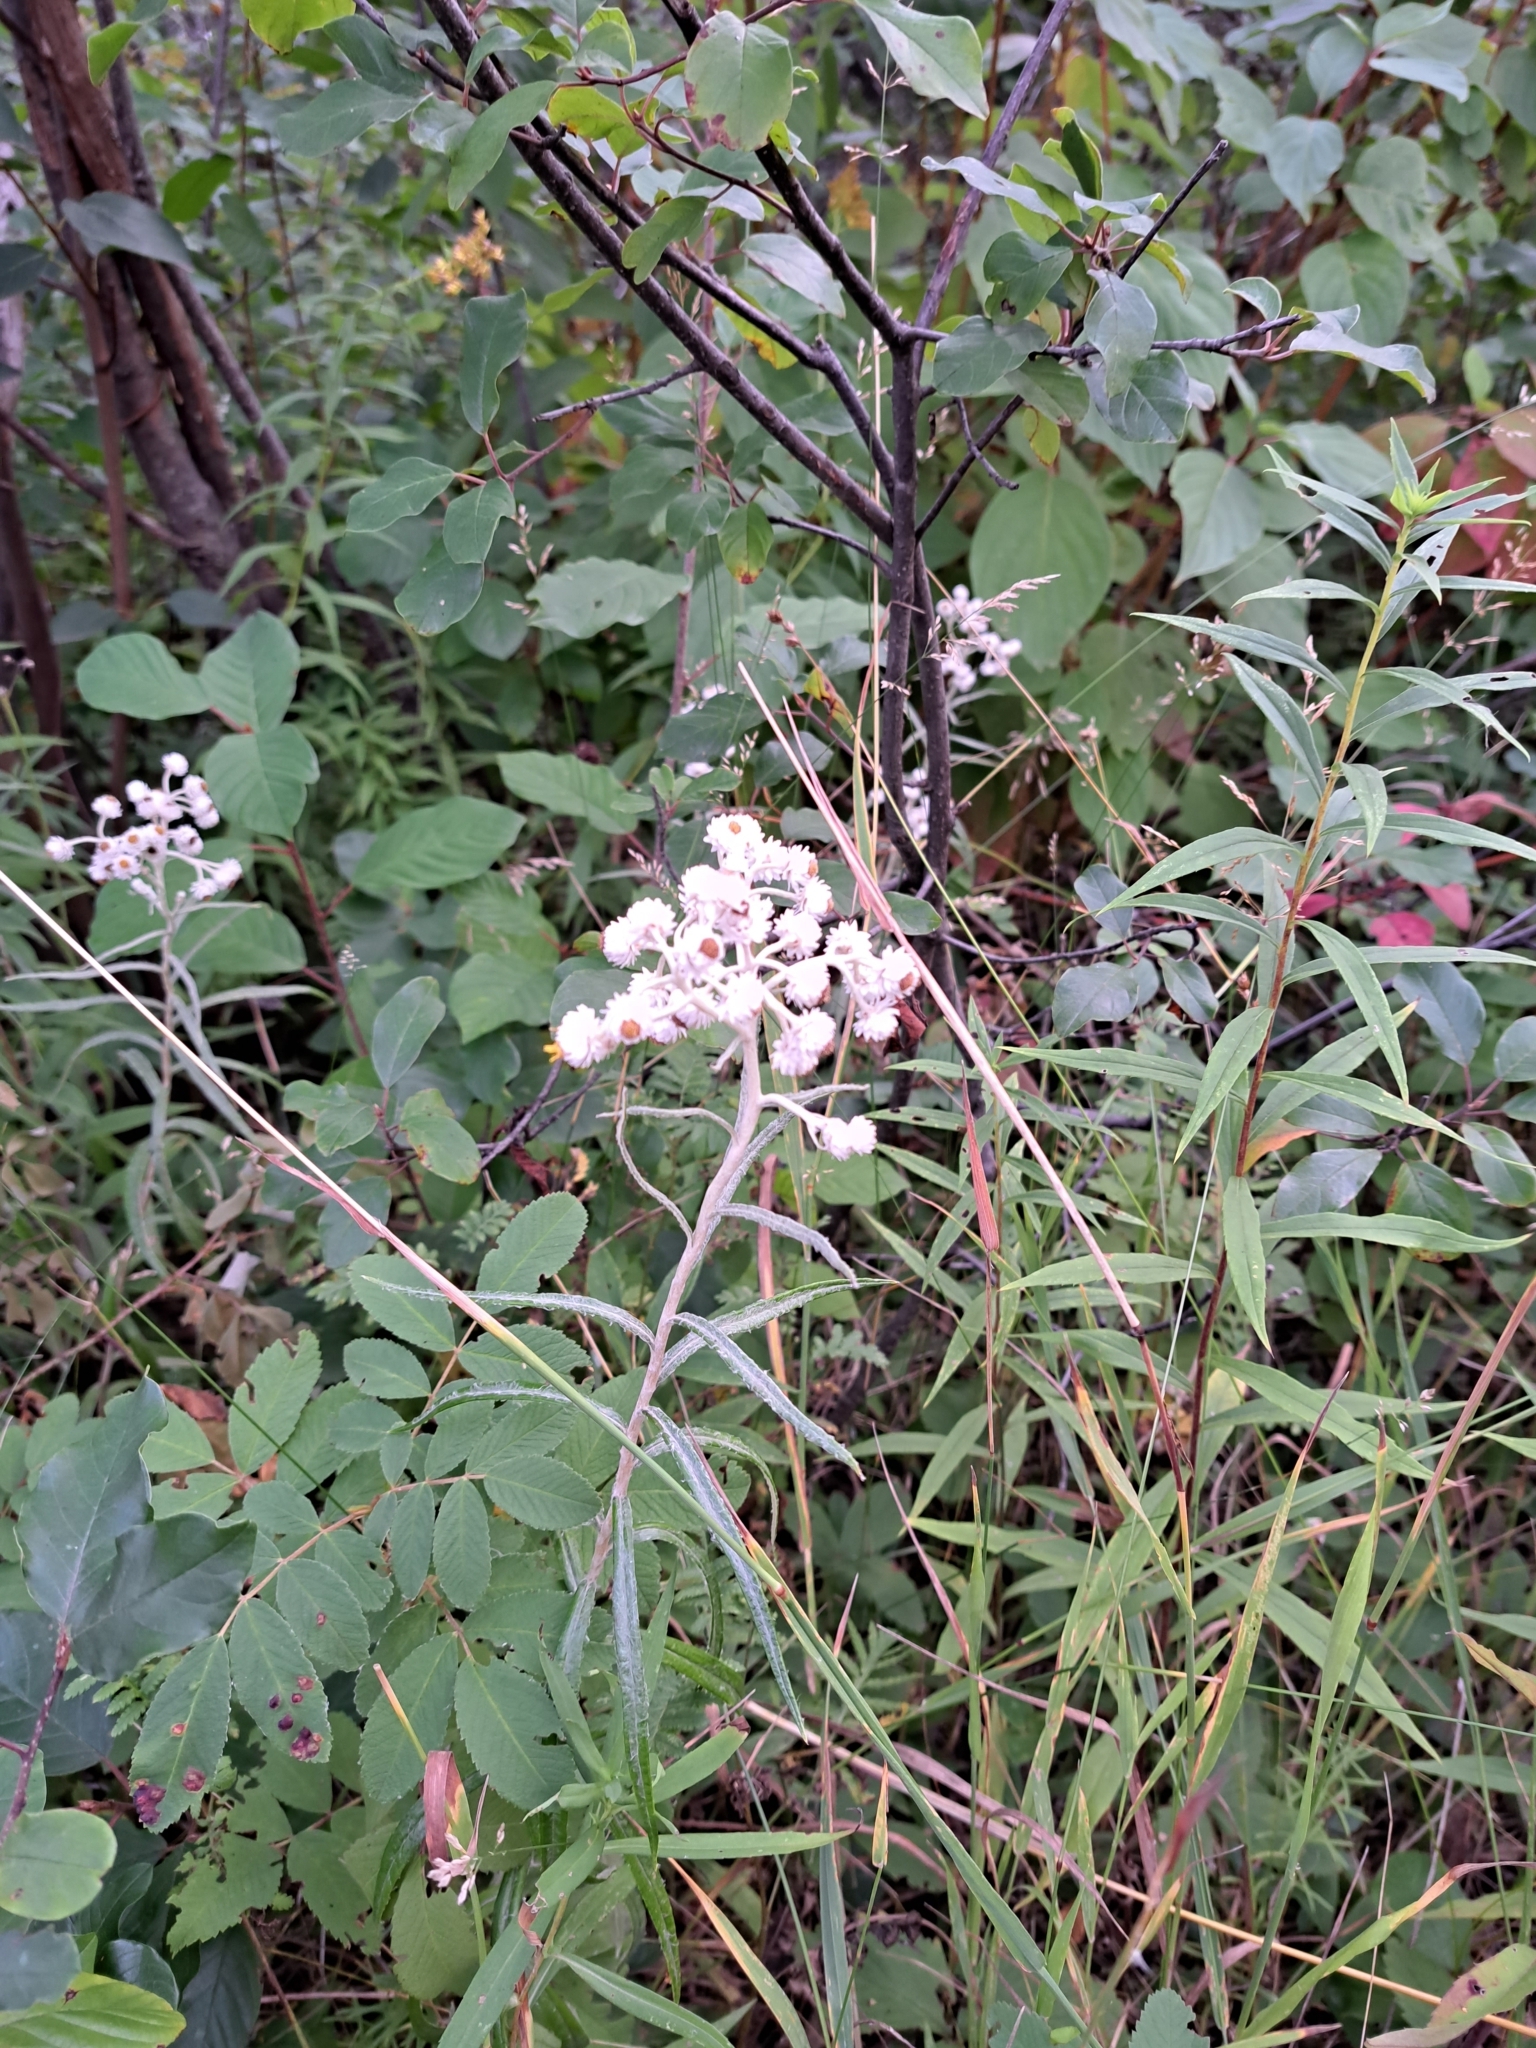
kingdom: Plantae
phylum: Tracheophyta
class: Magnoliopsida
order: Asterales
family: Asteraceae
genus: Anaphalis
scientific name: Anaphalis margaritacea
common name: Pearly everlasting
